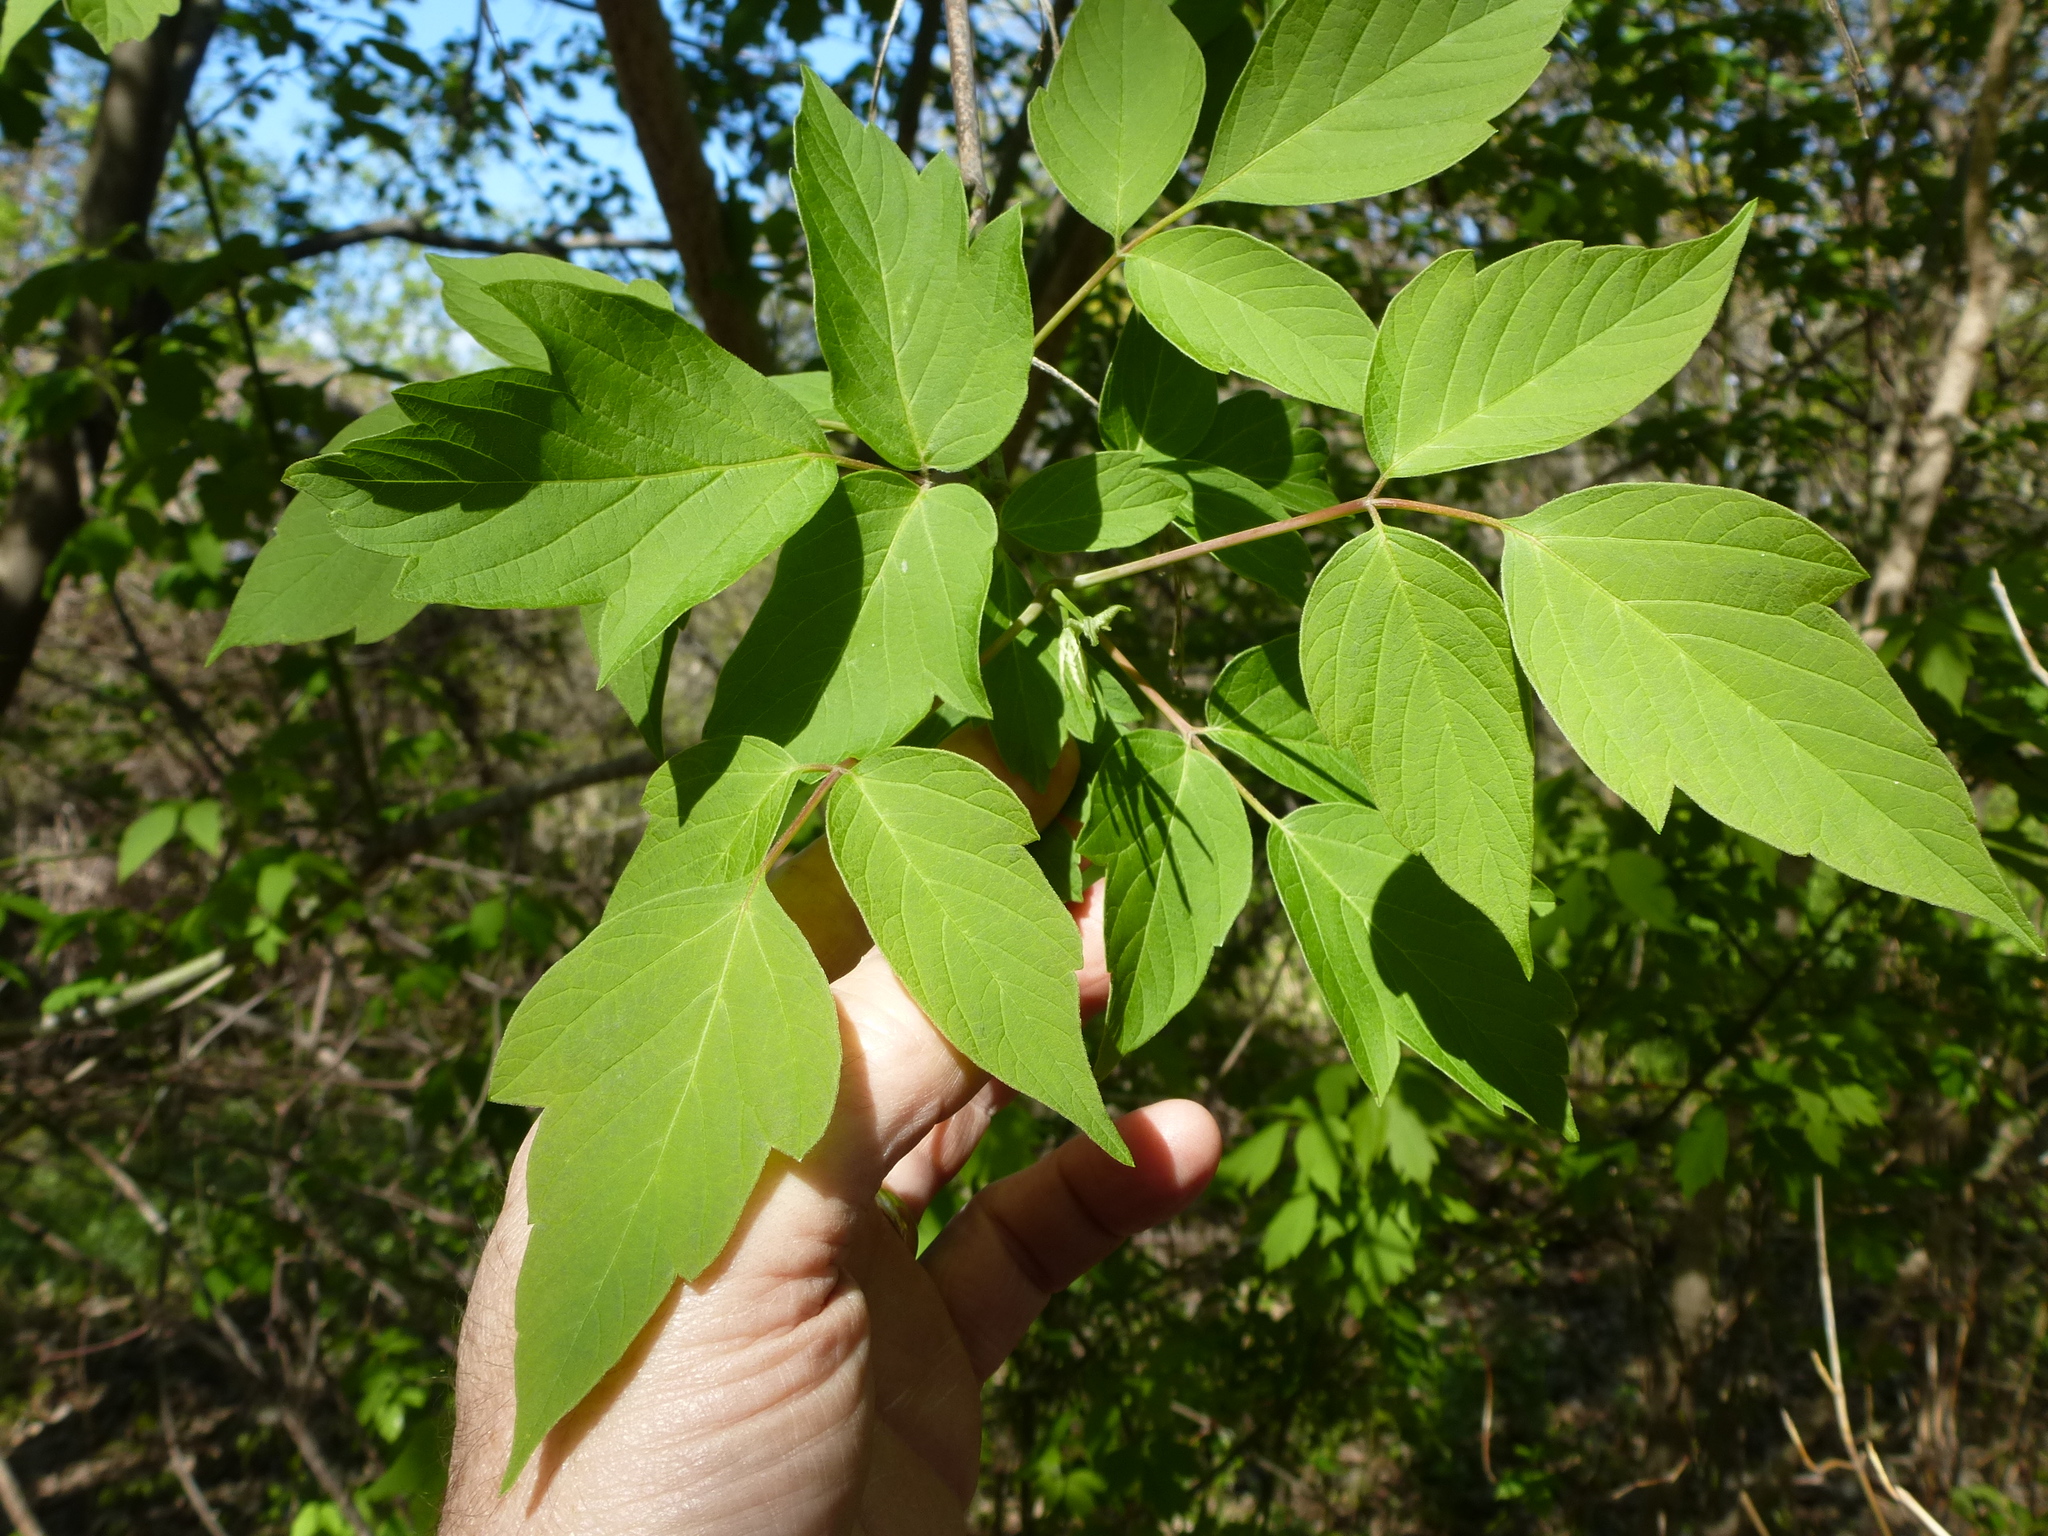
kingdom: Plantae
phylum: Tracheophyta
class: Magnoliopsida
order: Sapindales
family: Sapindaceae
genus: Acer
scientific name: Acer negundo
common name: Ashleaf maple
